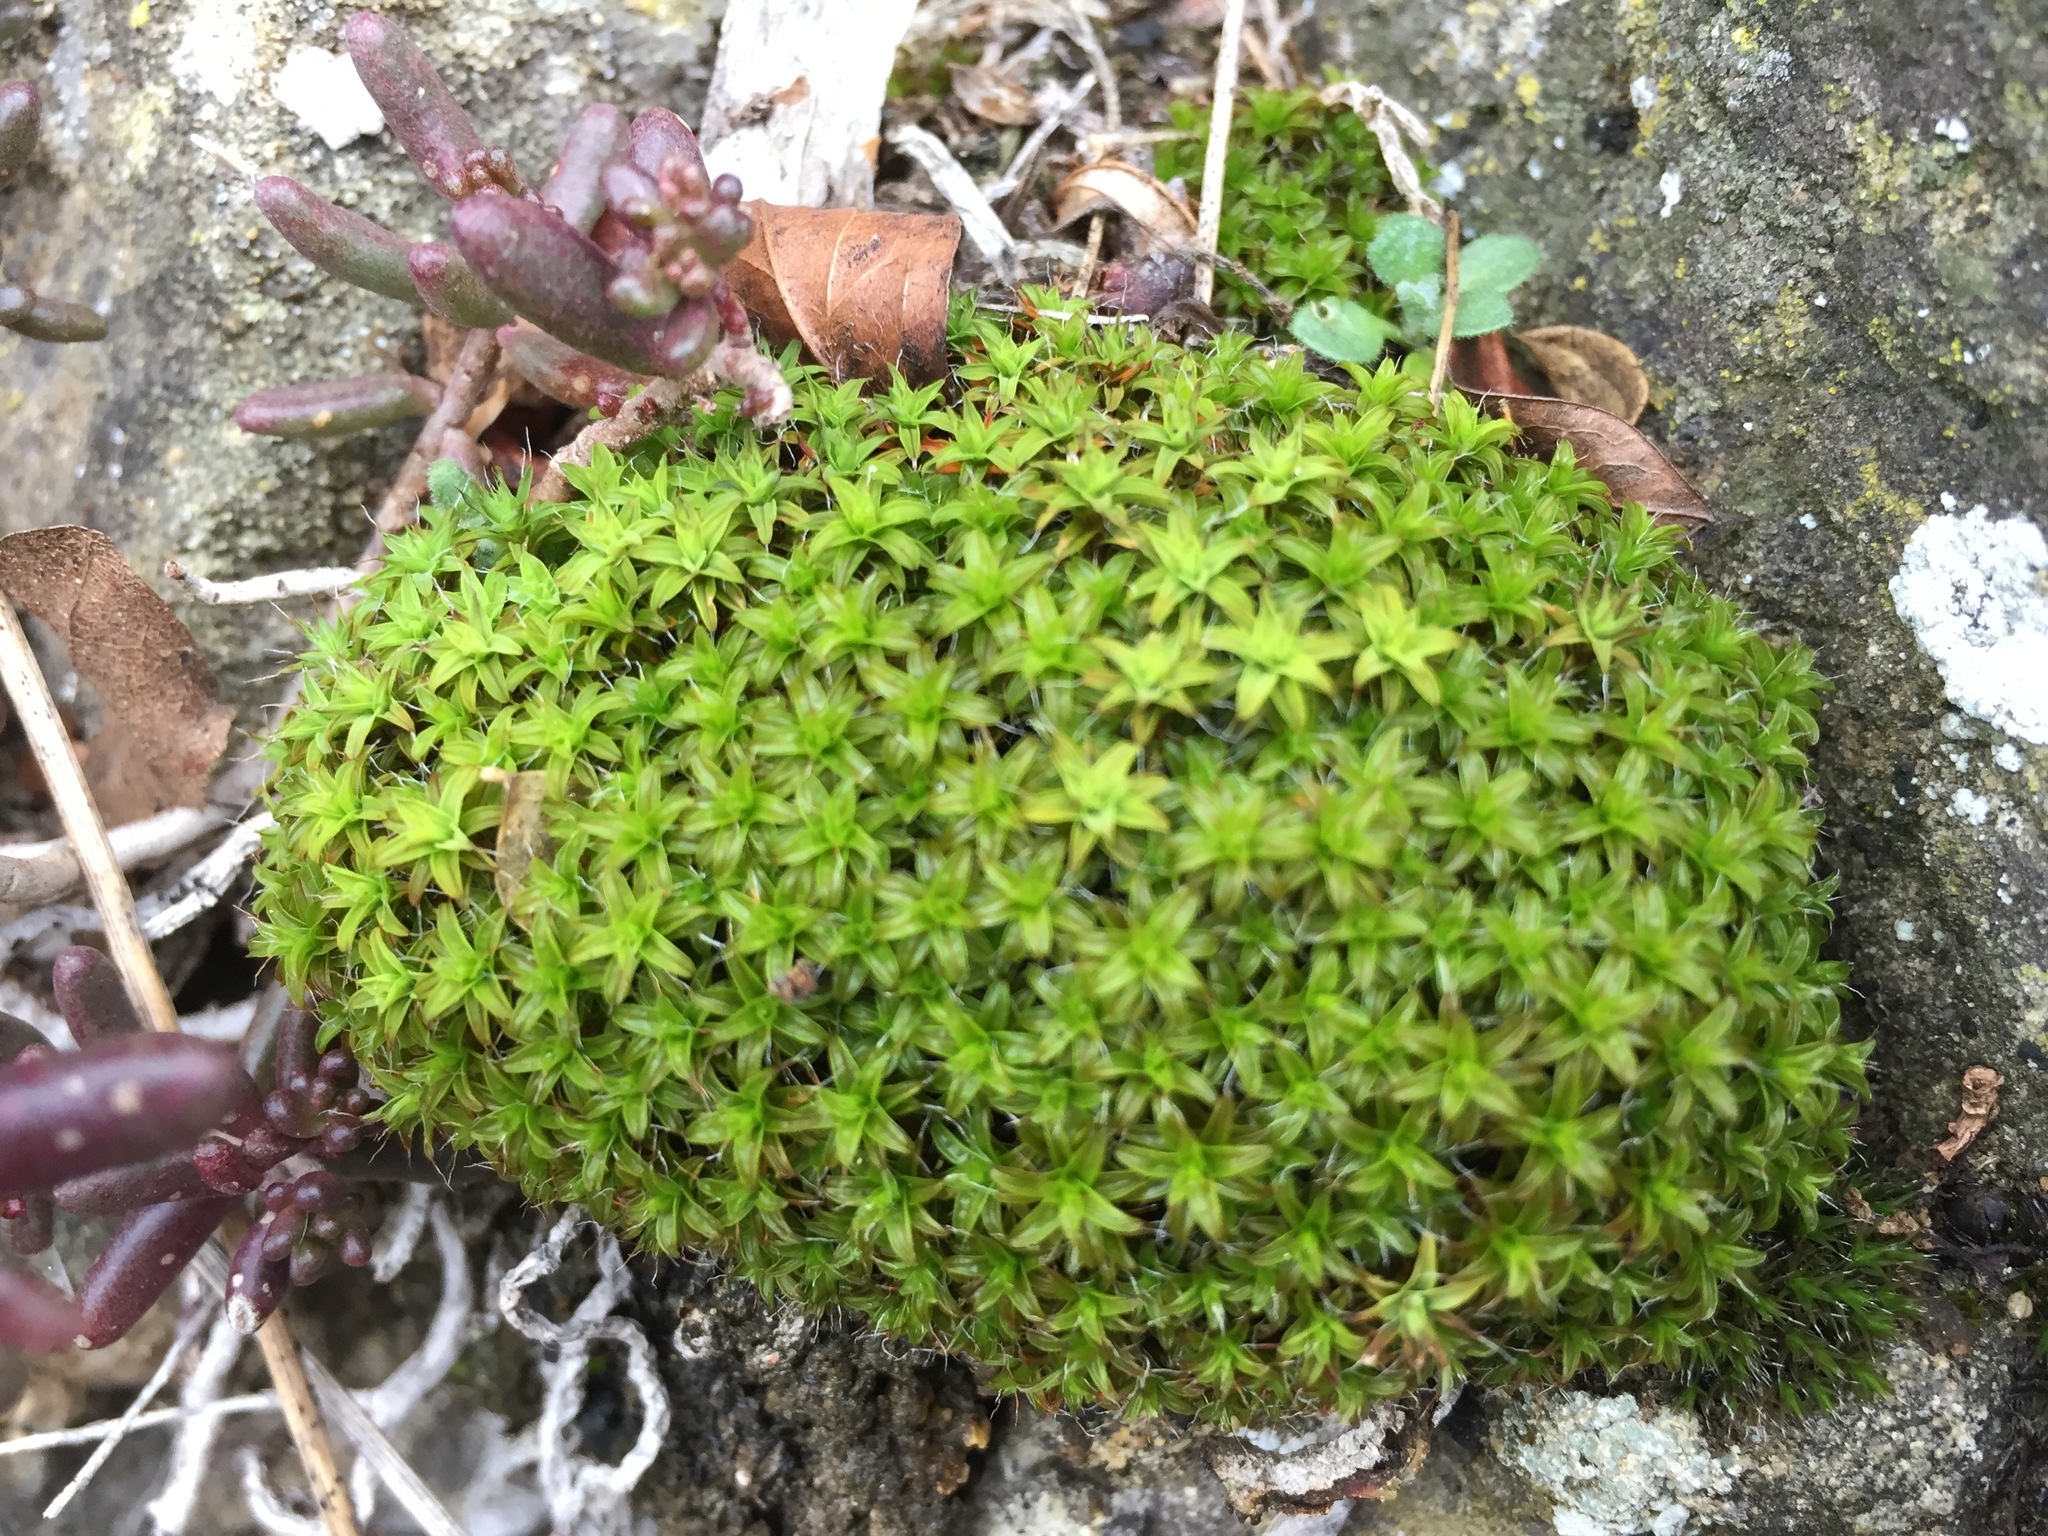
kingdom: Plantae
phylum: Bryophyta
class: Bryopsida
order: Pottiales
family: Pottiaceae
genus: Syntrichia
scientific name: Syntrichia ruralis
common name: Sidewalk screw moss
